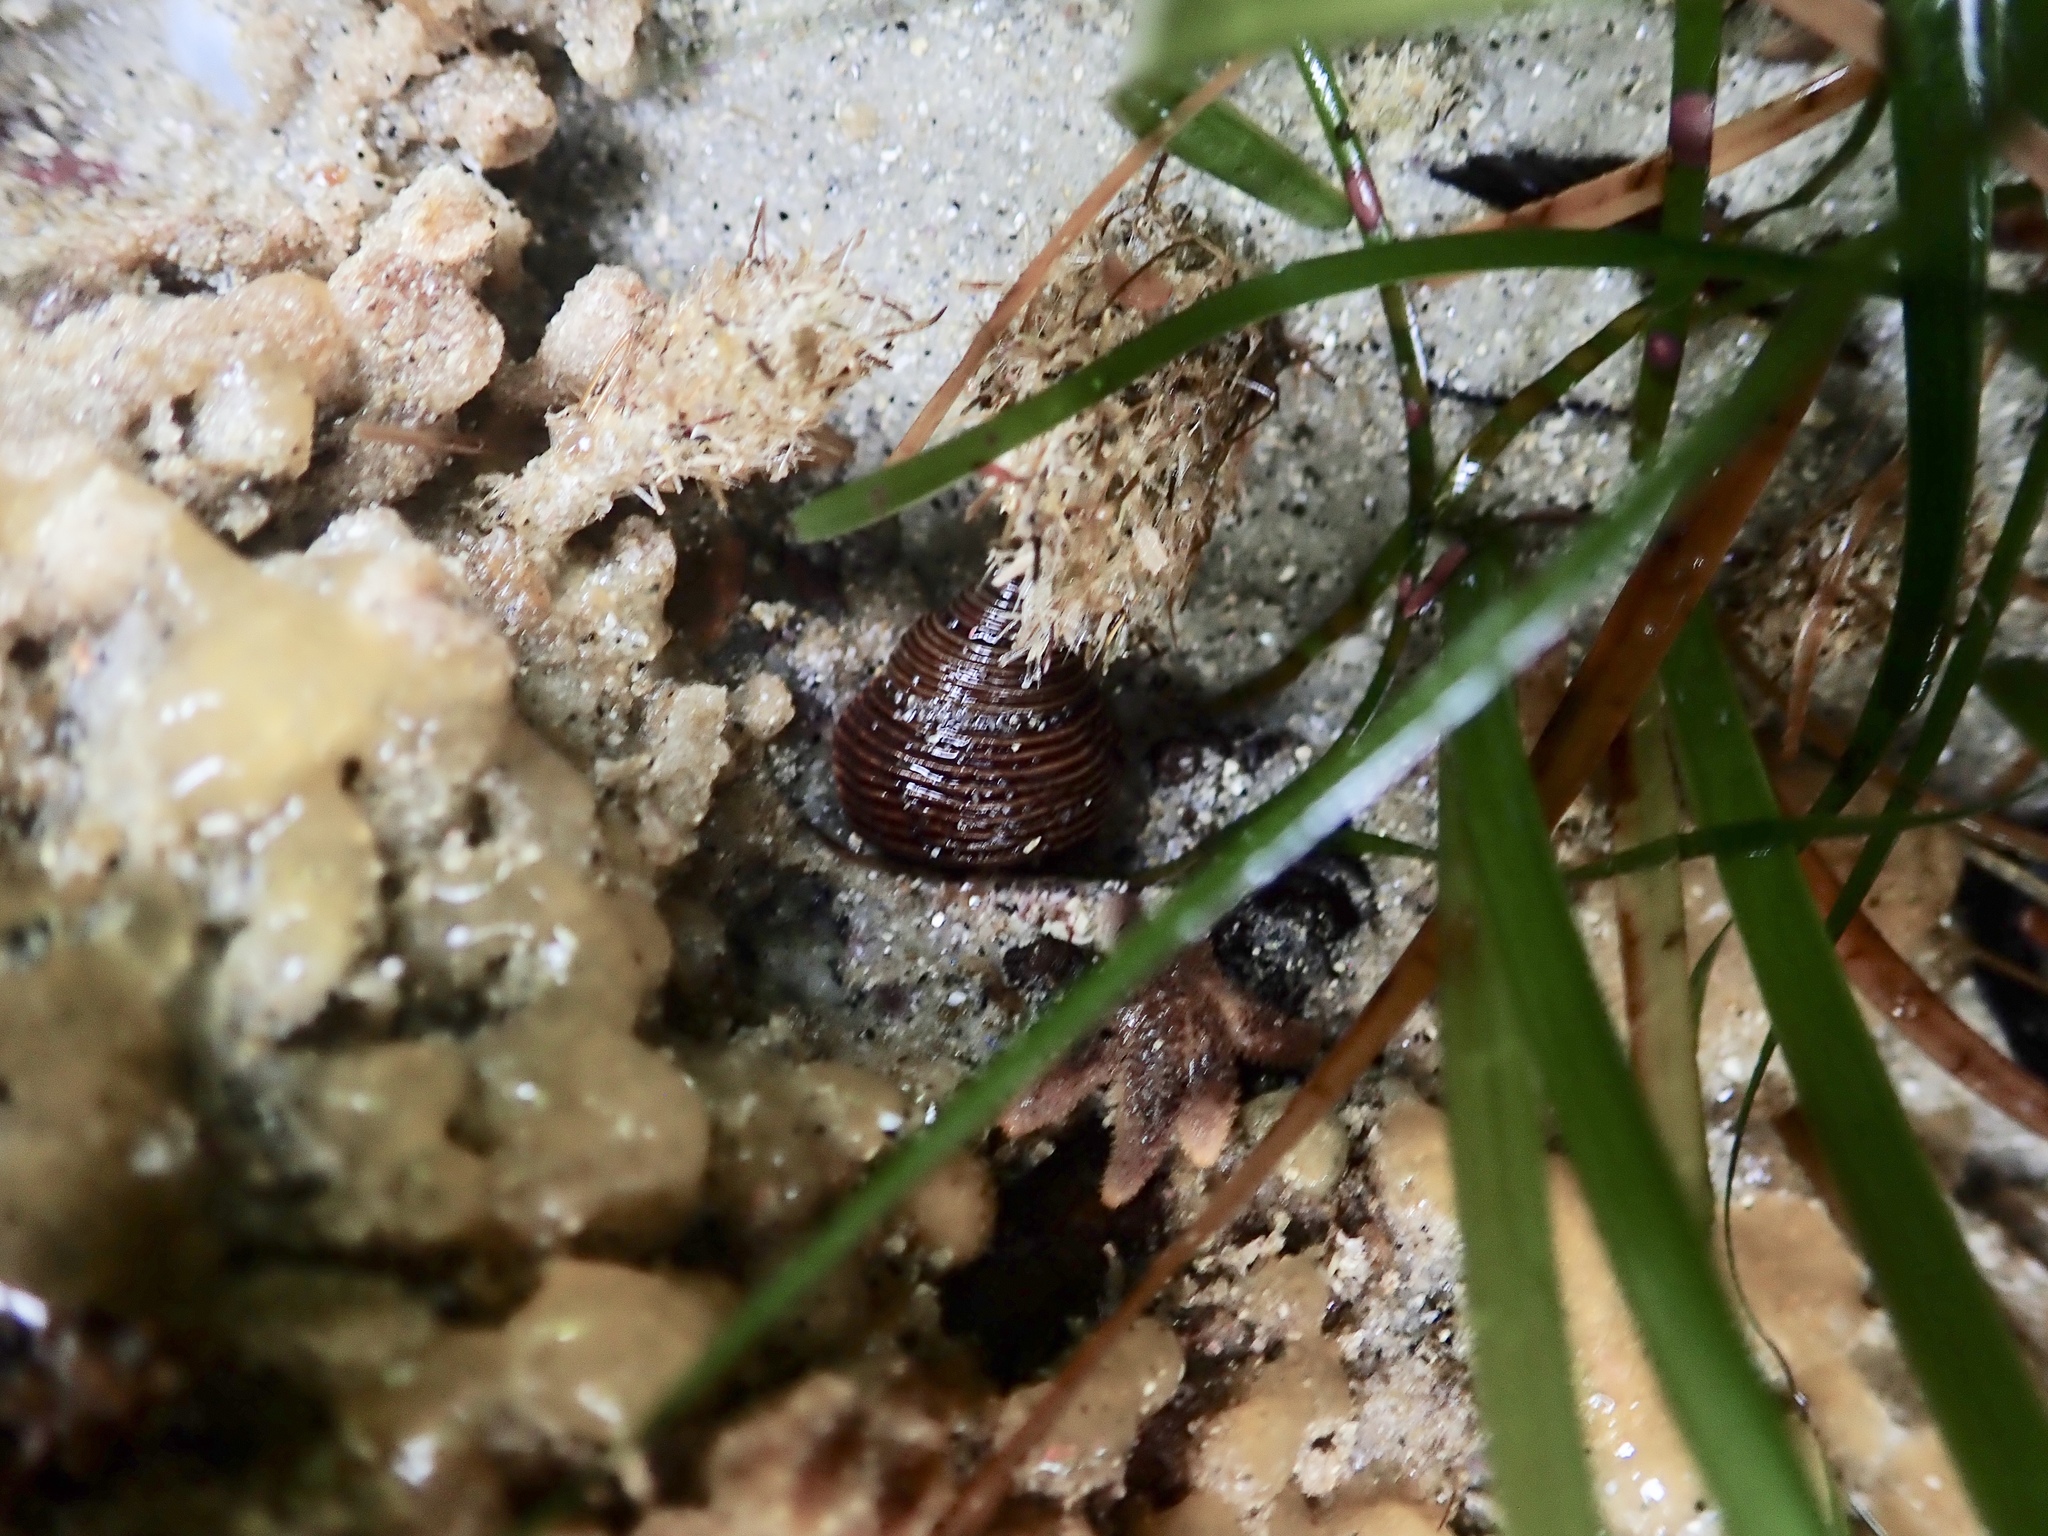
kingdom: Animalia
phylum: Mollusca
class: Gastropoda
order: Trochida
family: Calliostomatidae
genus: Calliostoma
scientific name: Calliostoma ligatum
